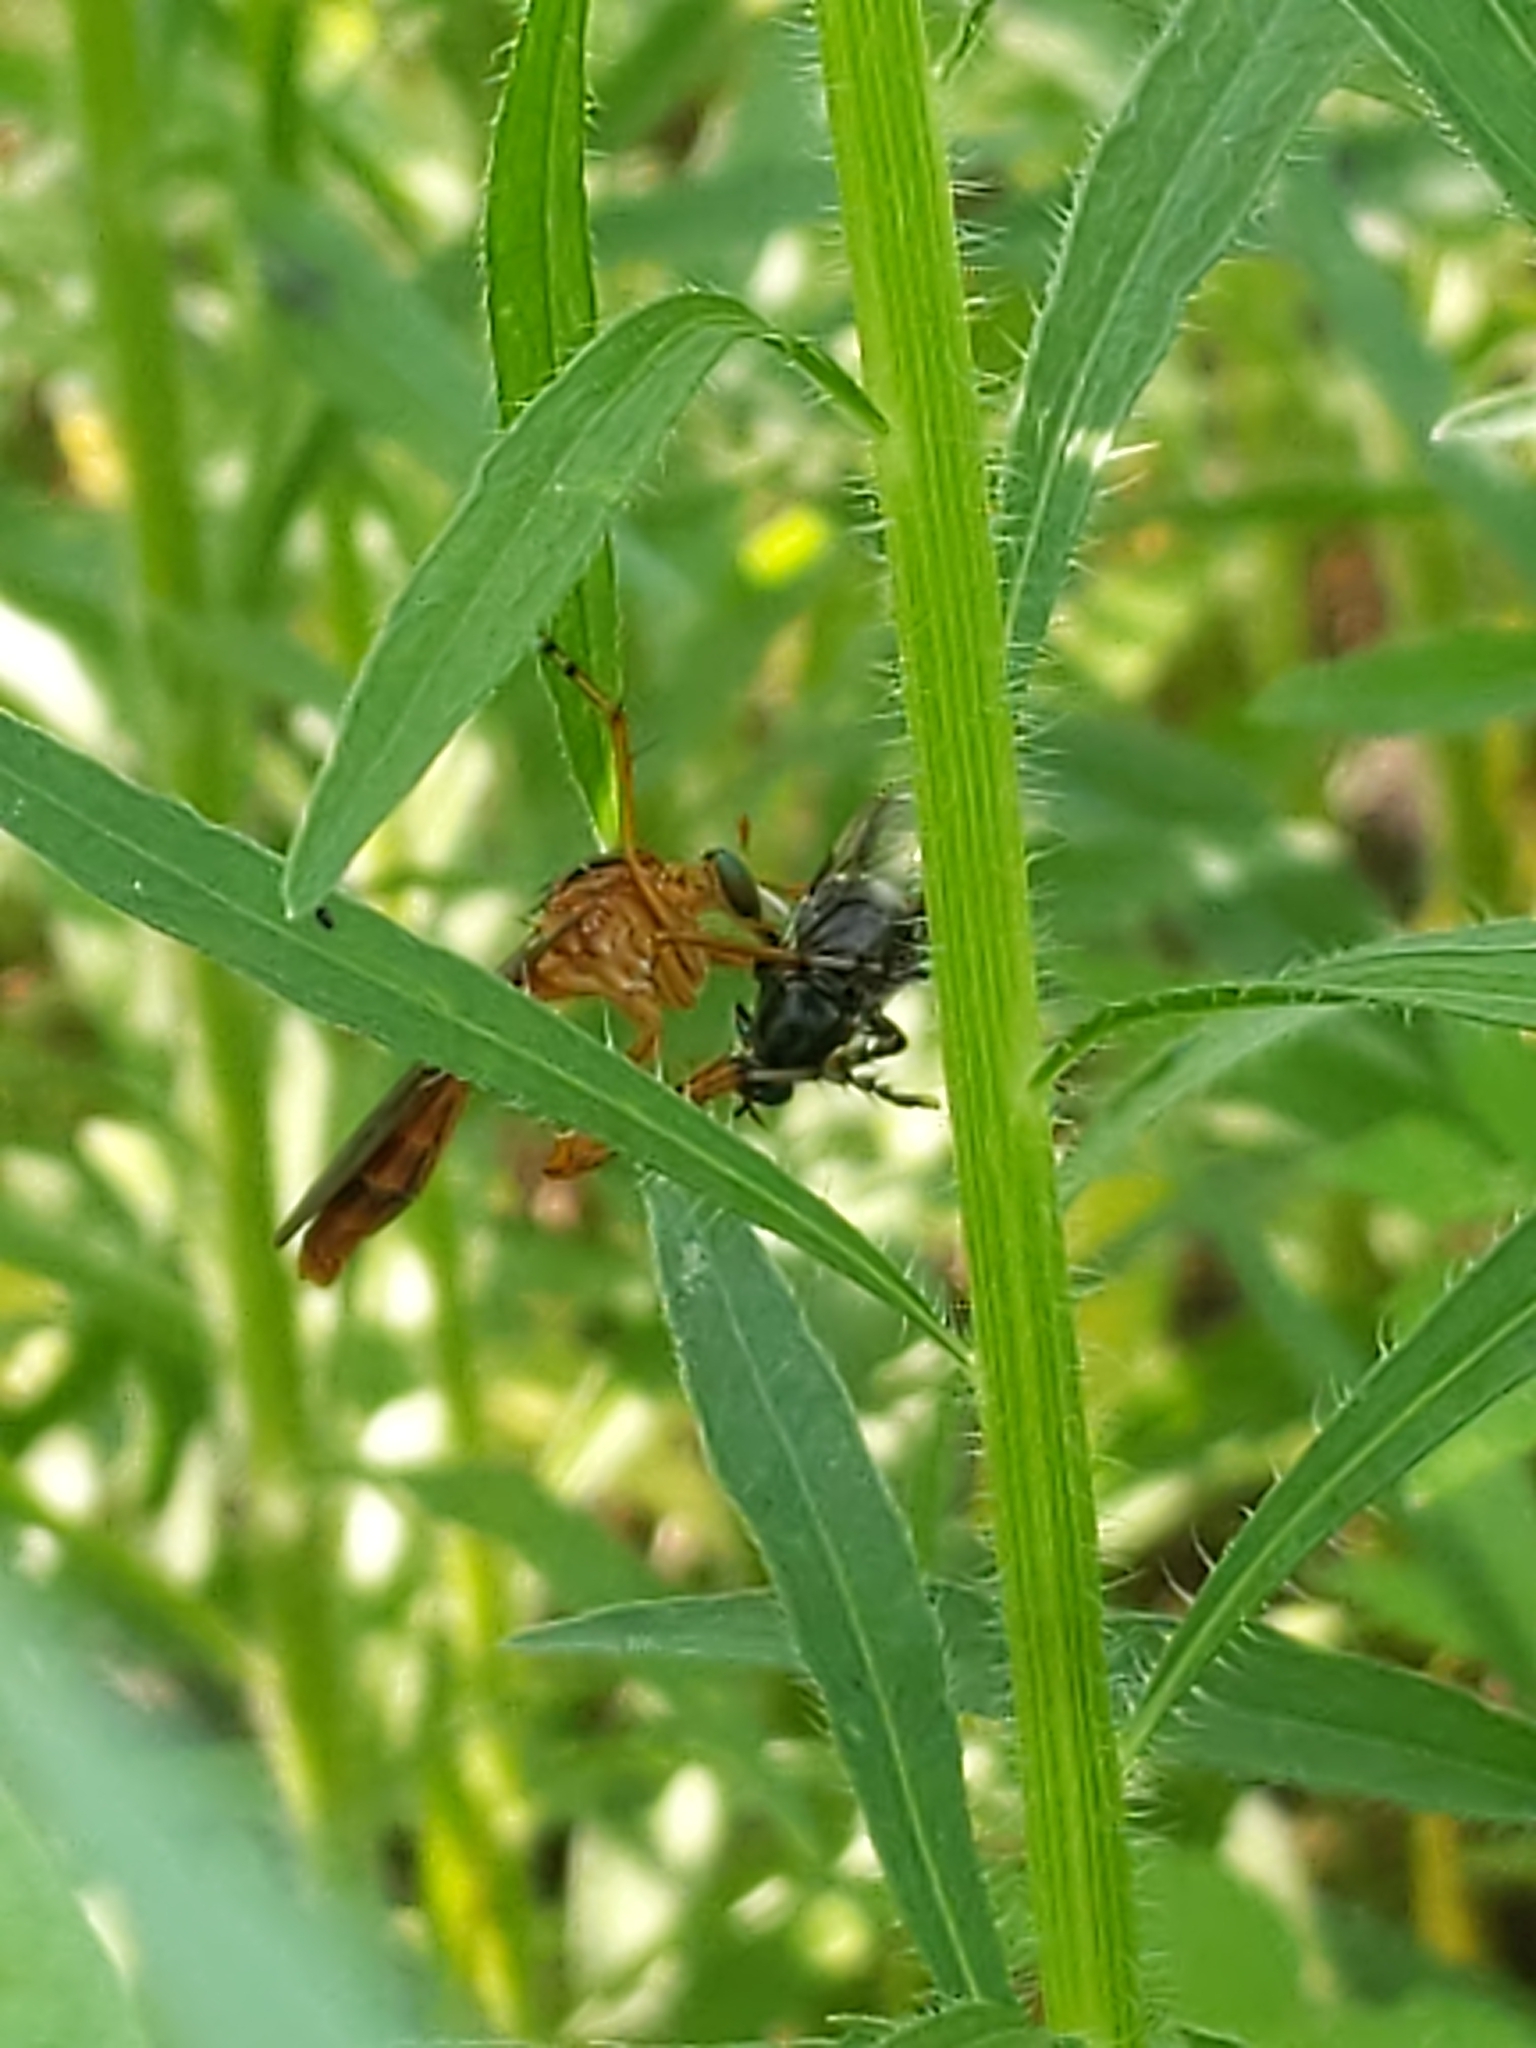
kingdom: Animalia
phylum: Arthropoda
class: Insecta
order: Diptera
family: Asilidae
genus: Diogmites
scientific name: Diogmites
